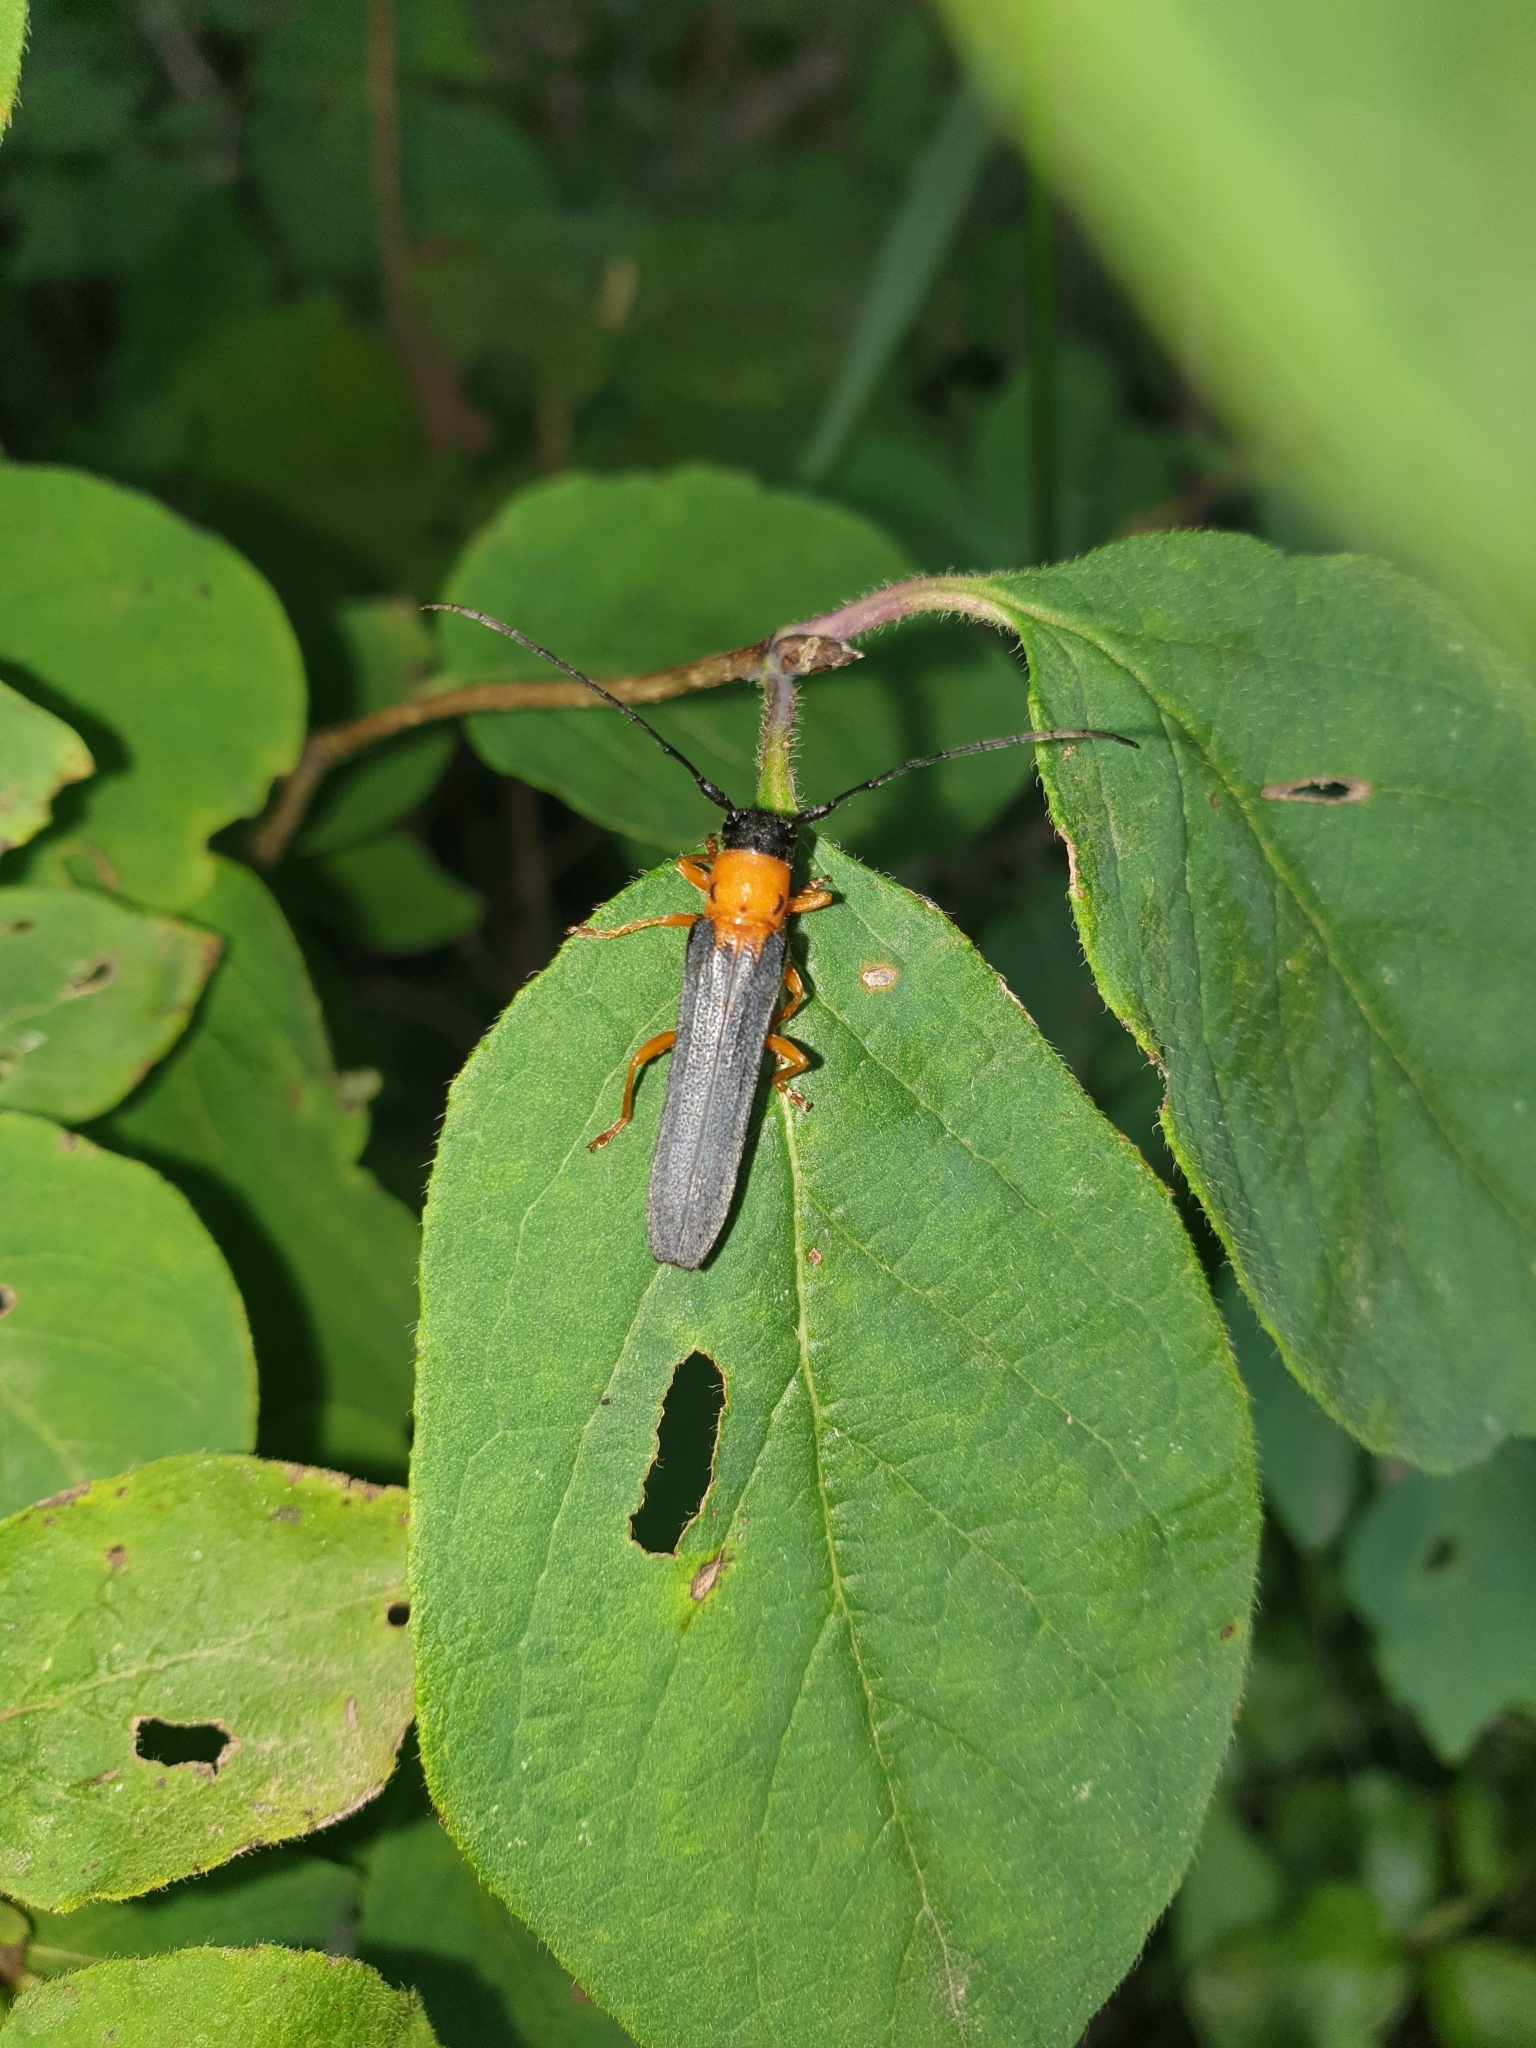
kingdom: Animalia
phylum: Arthropoda
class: Insecta
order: Coleoptera
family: Cerambycidae
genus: Oberea
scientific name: Oberea pupillata
